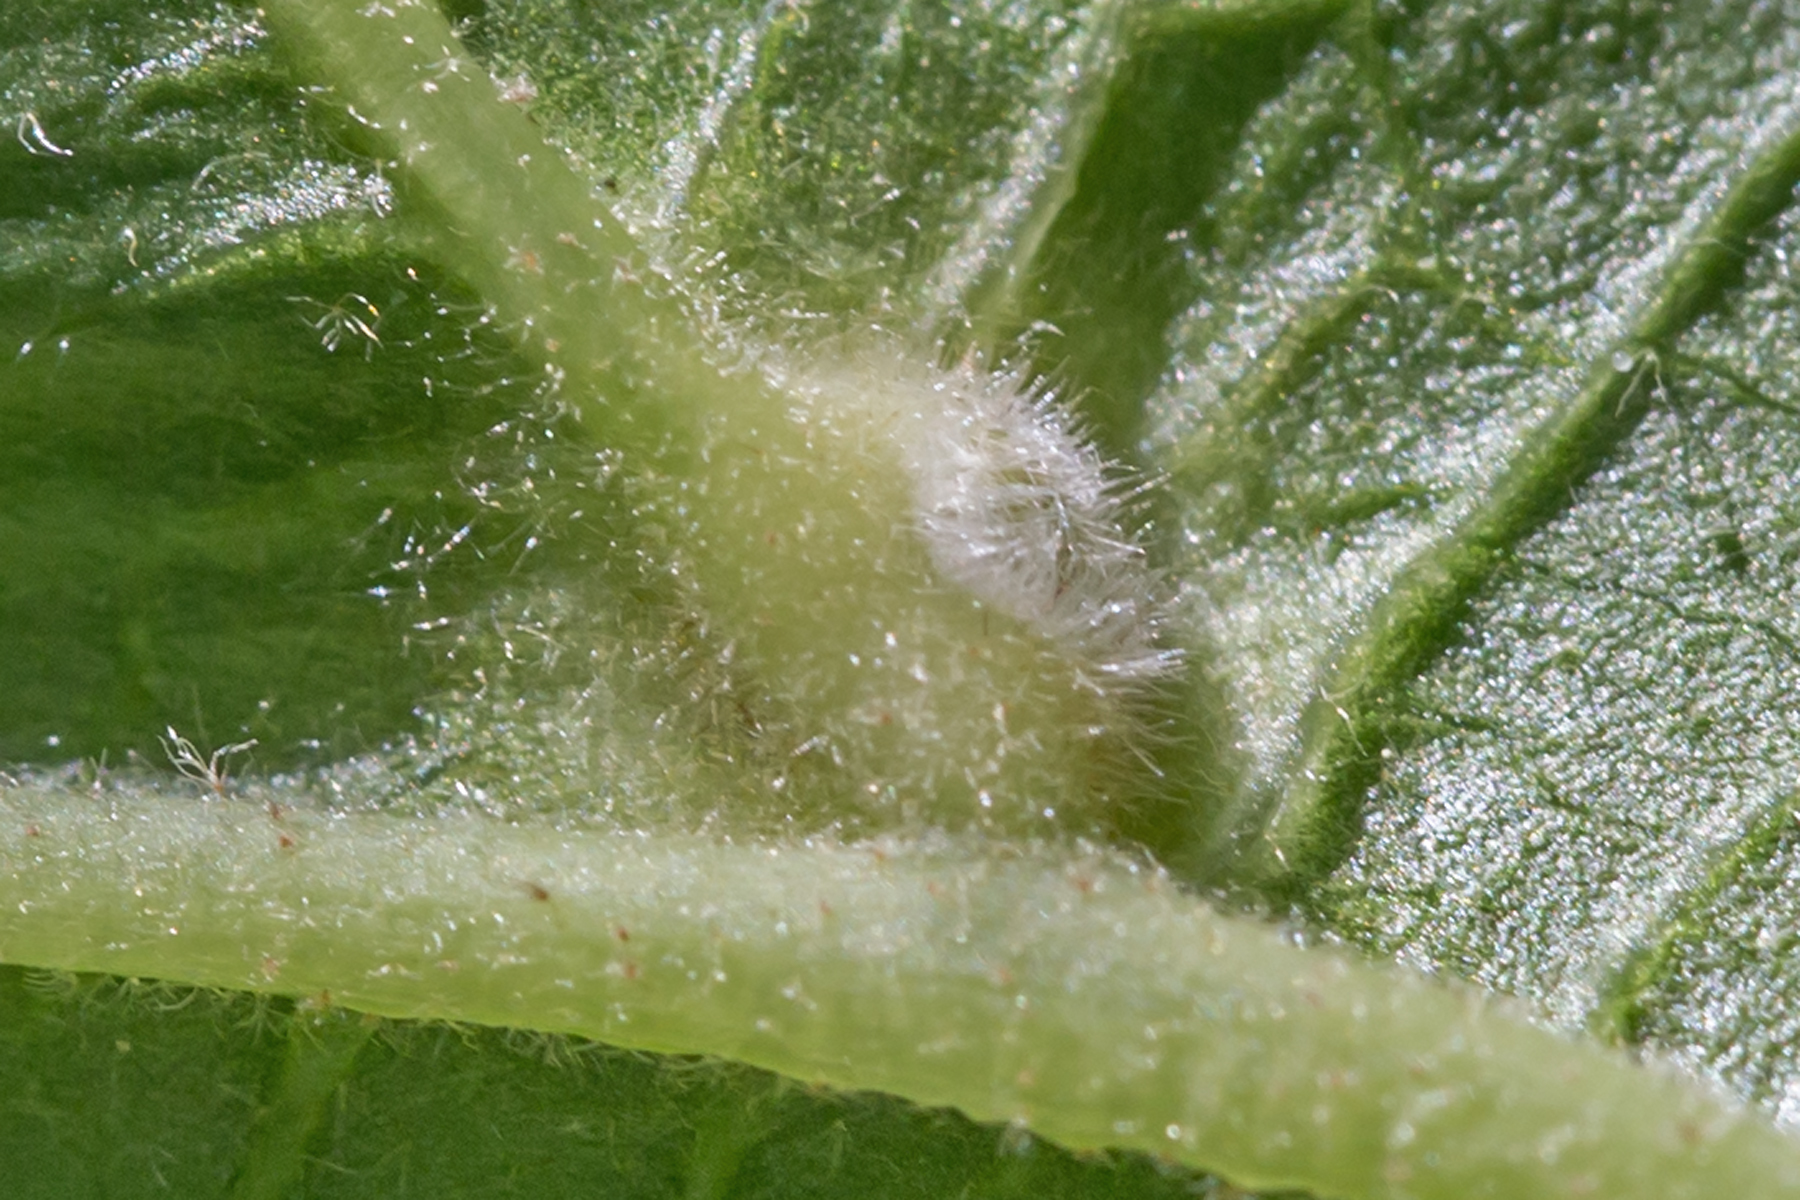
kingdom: Animalia
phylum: Arthropoda
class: Insecta
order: Hemiptera
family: Aphididae
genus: Hormaphis
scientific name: Hormaphis hamamelidis
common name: Witch-hazel cone gall aphid
